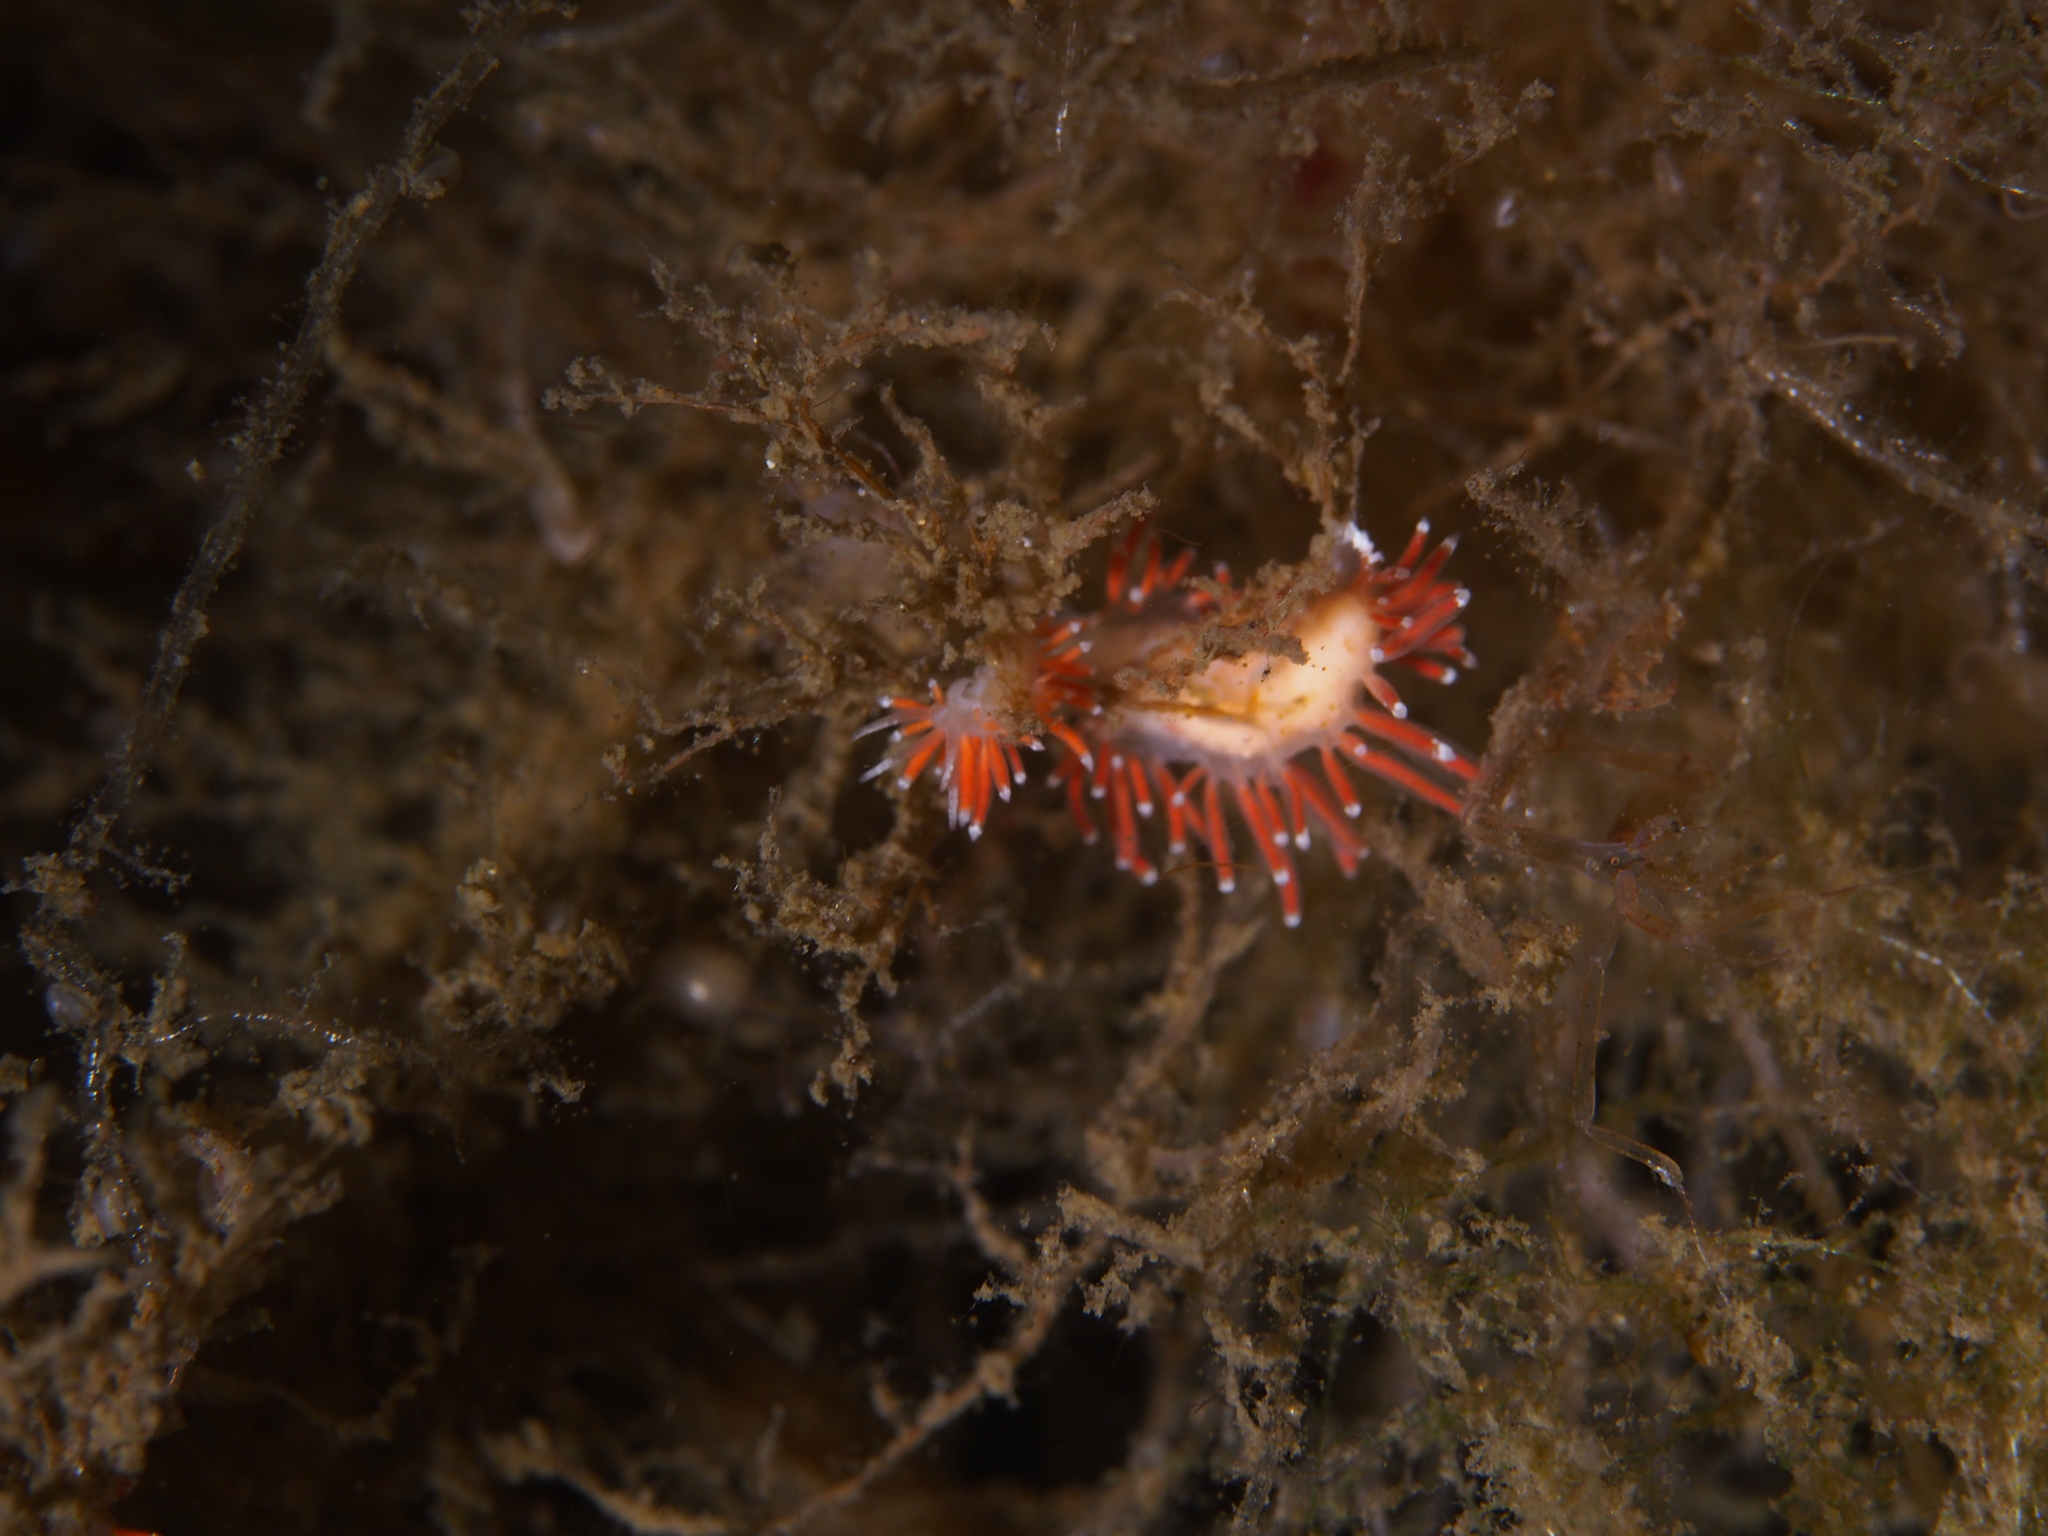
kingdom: Animalia
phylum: Mollusca
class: Gastropoda
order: Nudibranchia
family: Coryphellidae
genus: Coryphella
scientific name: Coryphella gracilis
